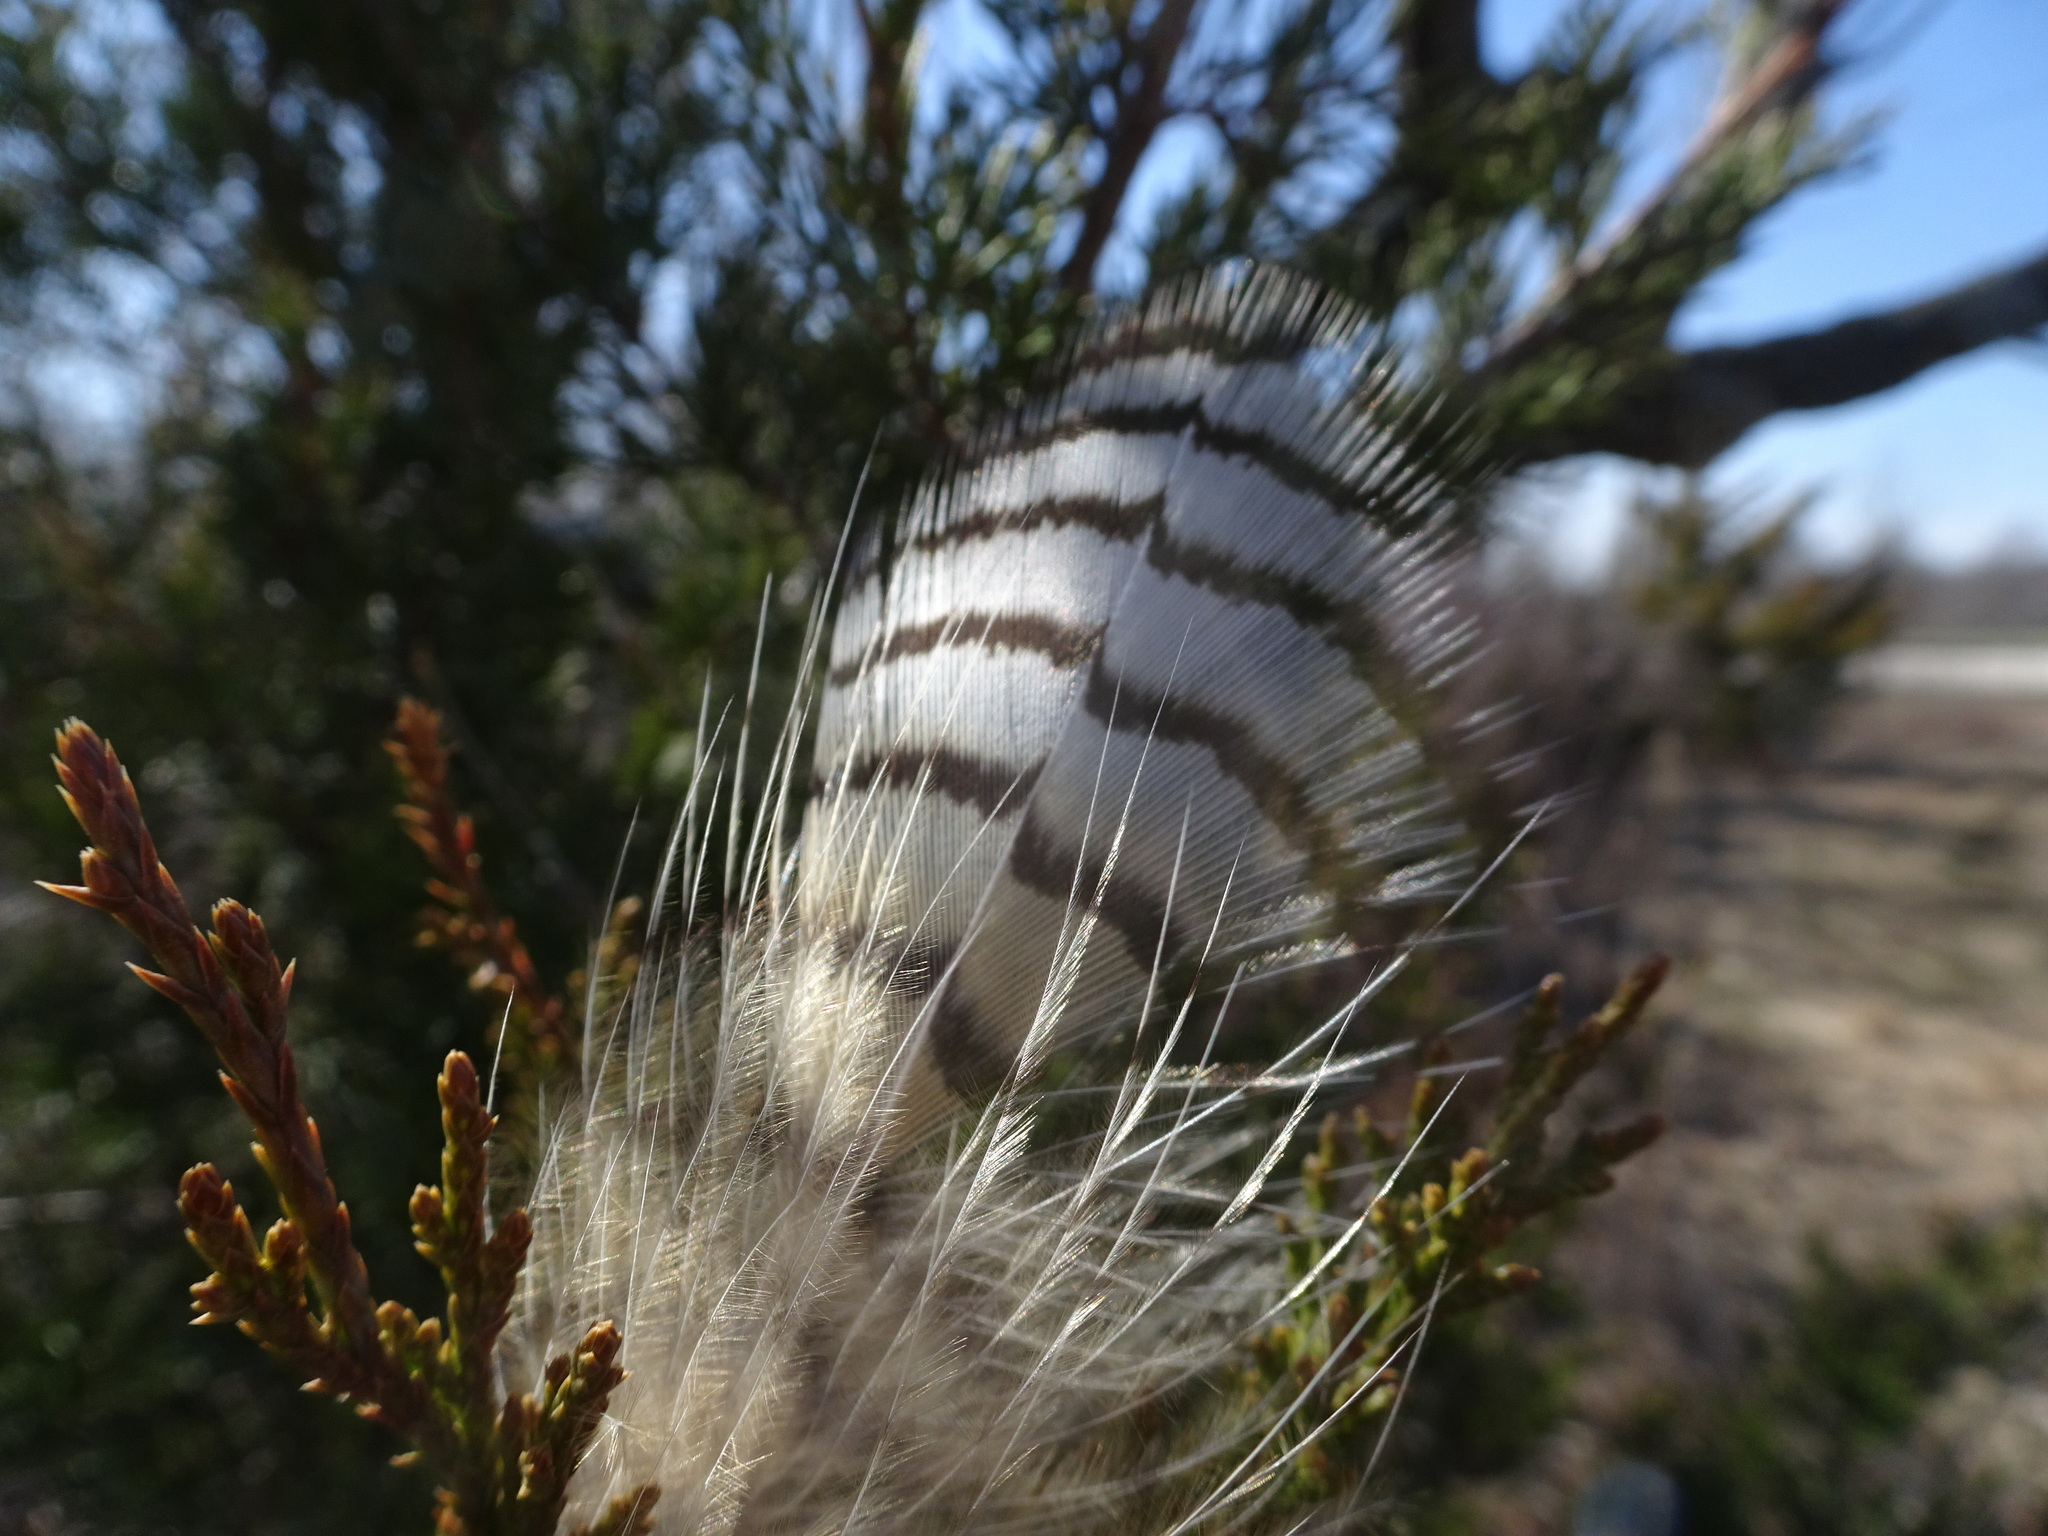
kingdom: Animalia
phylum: Chordata
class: Aves
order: Strigiformes
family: Strigidae
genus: Bubo
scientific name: Bubo virginianus
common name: Great horned owl
